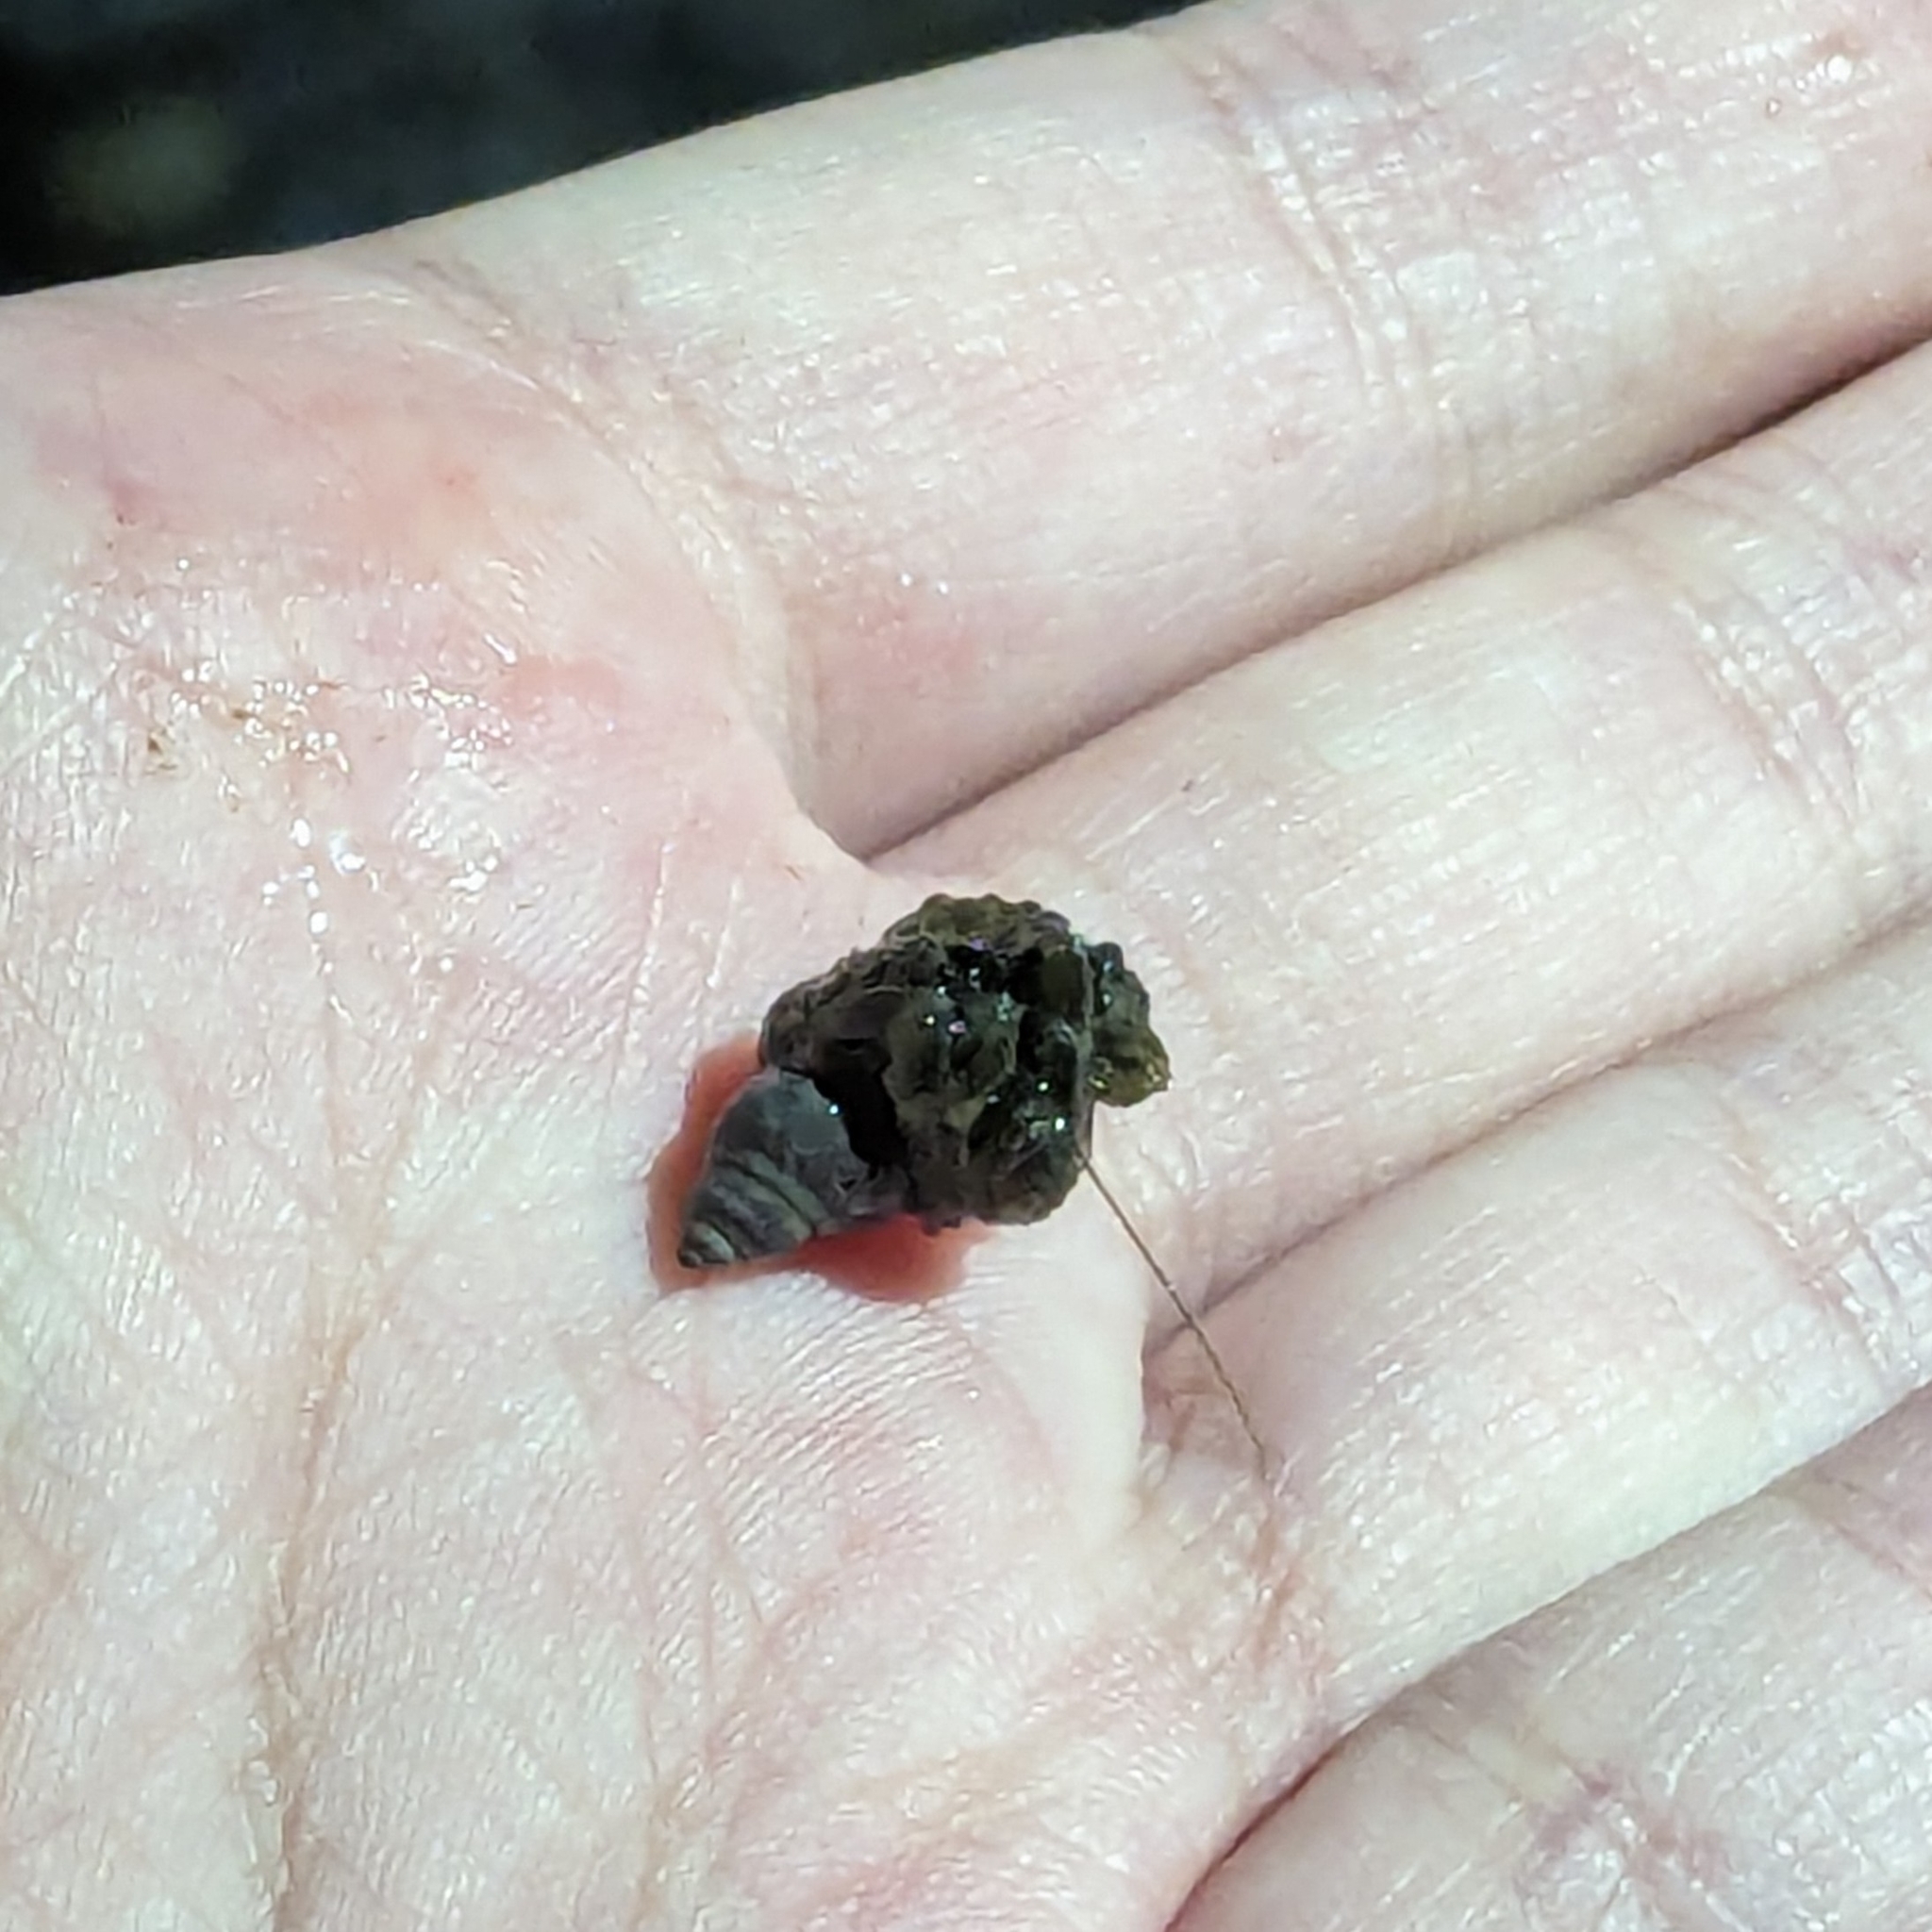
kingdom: Animalia
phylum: Arthropoda
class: Malacostraca
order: Decapoda
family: Paguridae
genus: Pagurus
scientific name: Pagurus hirsutiusculus
